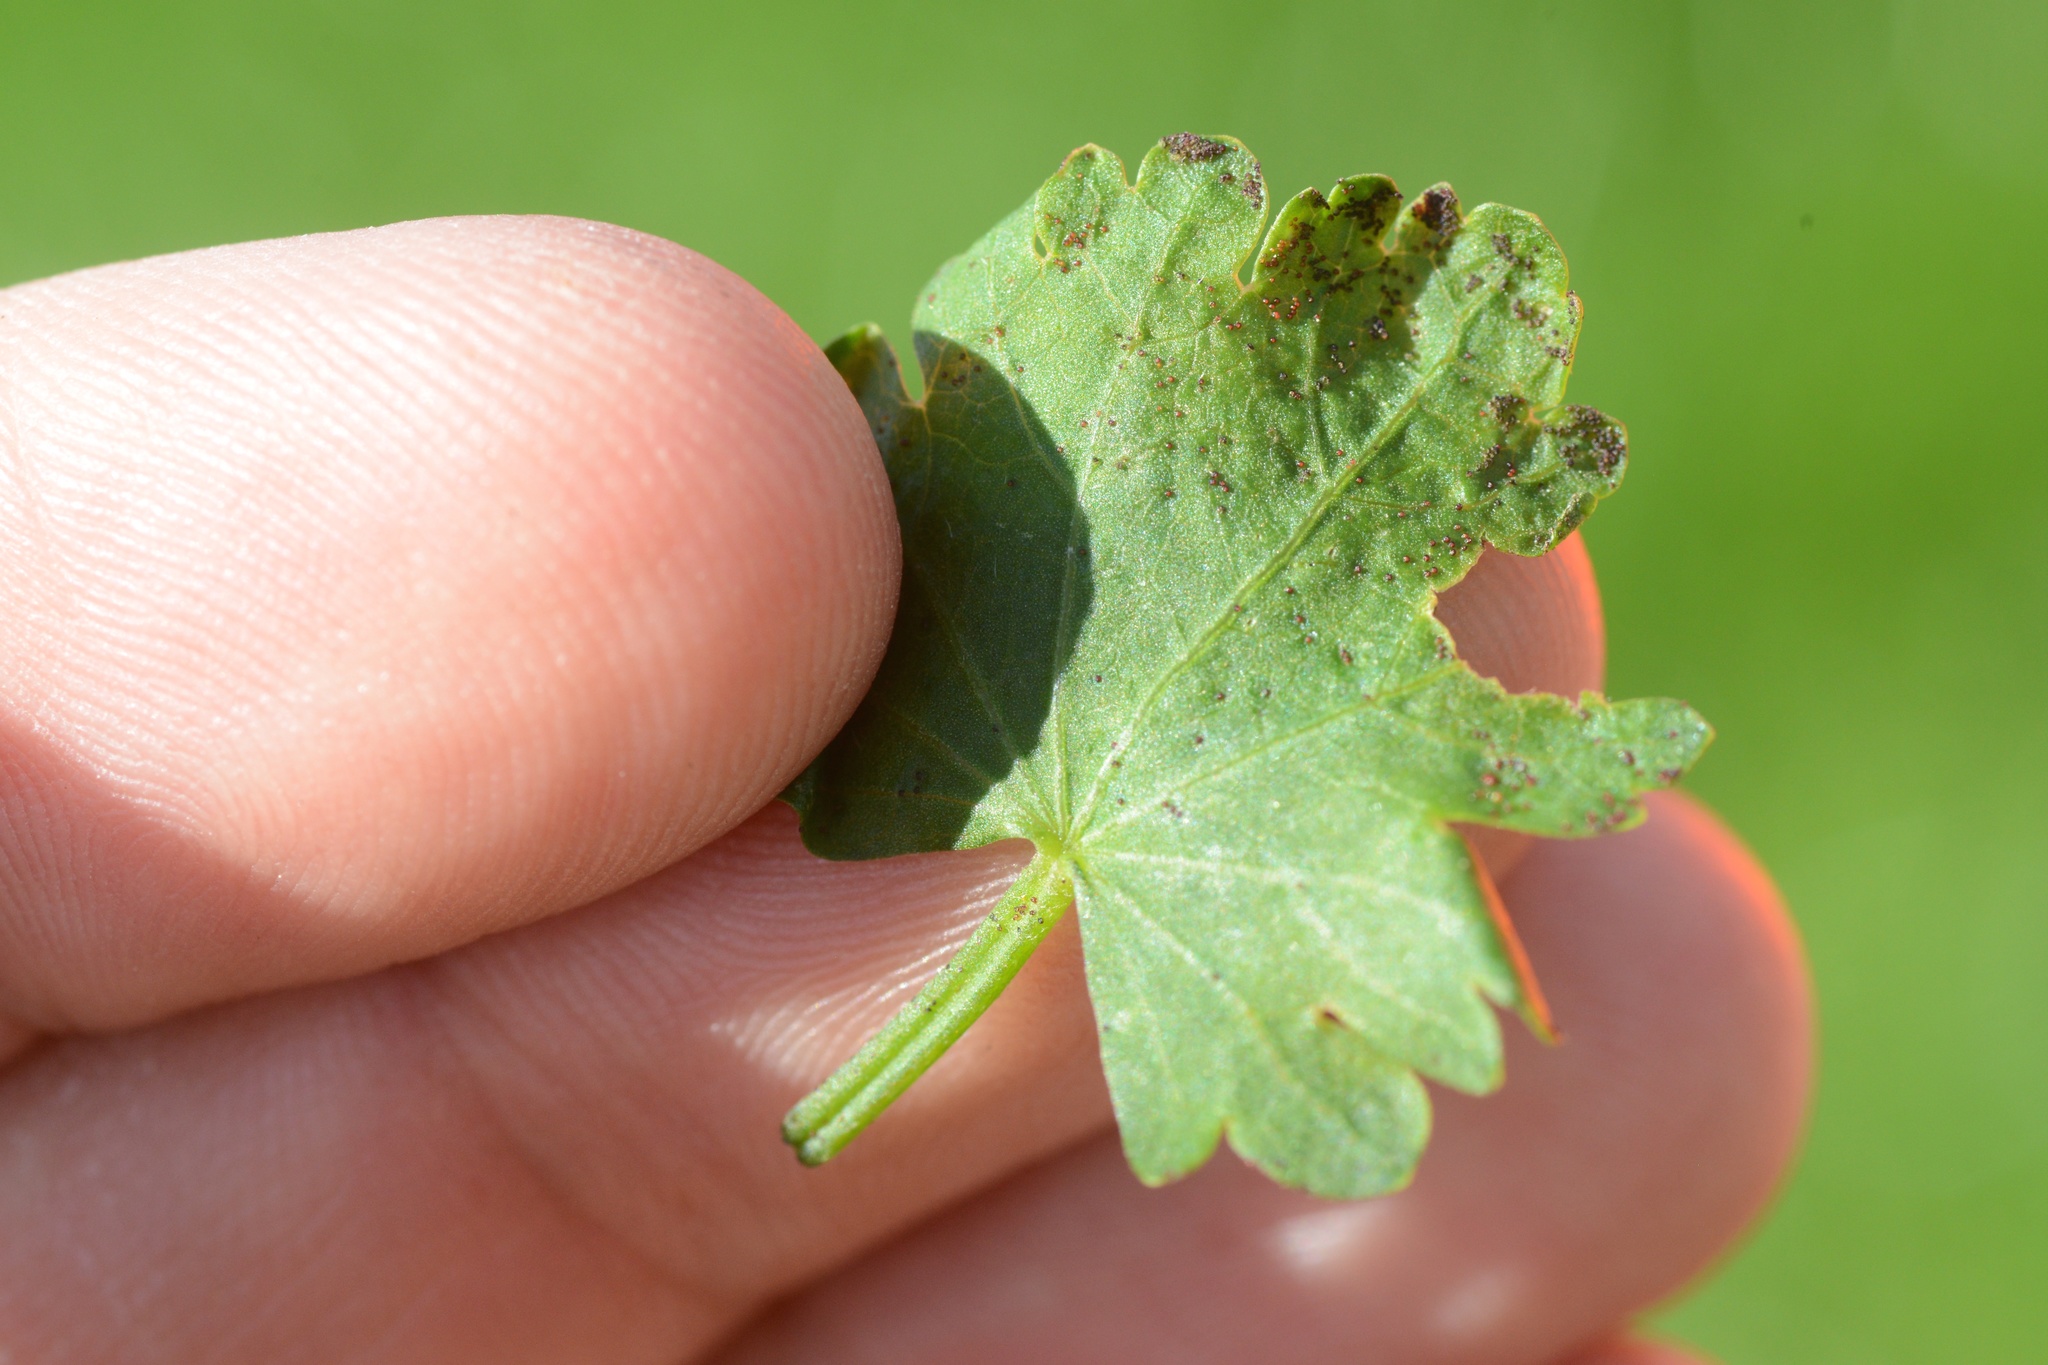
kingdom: Plantae
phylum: Tracheophyta
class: Magnoliopsida
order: Malvales
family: Malvaceae
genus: Modiola
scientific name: Modiola caroliniana
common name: Carolina bristlemallow
